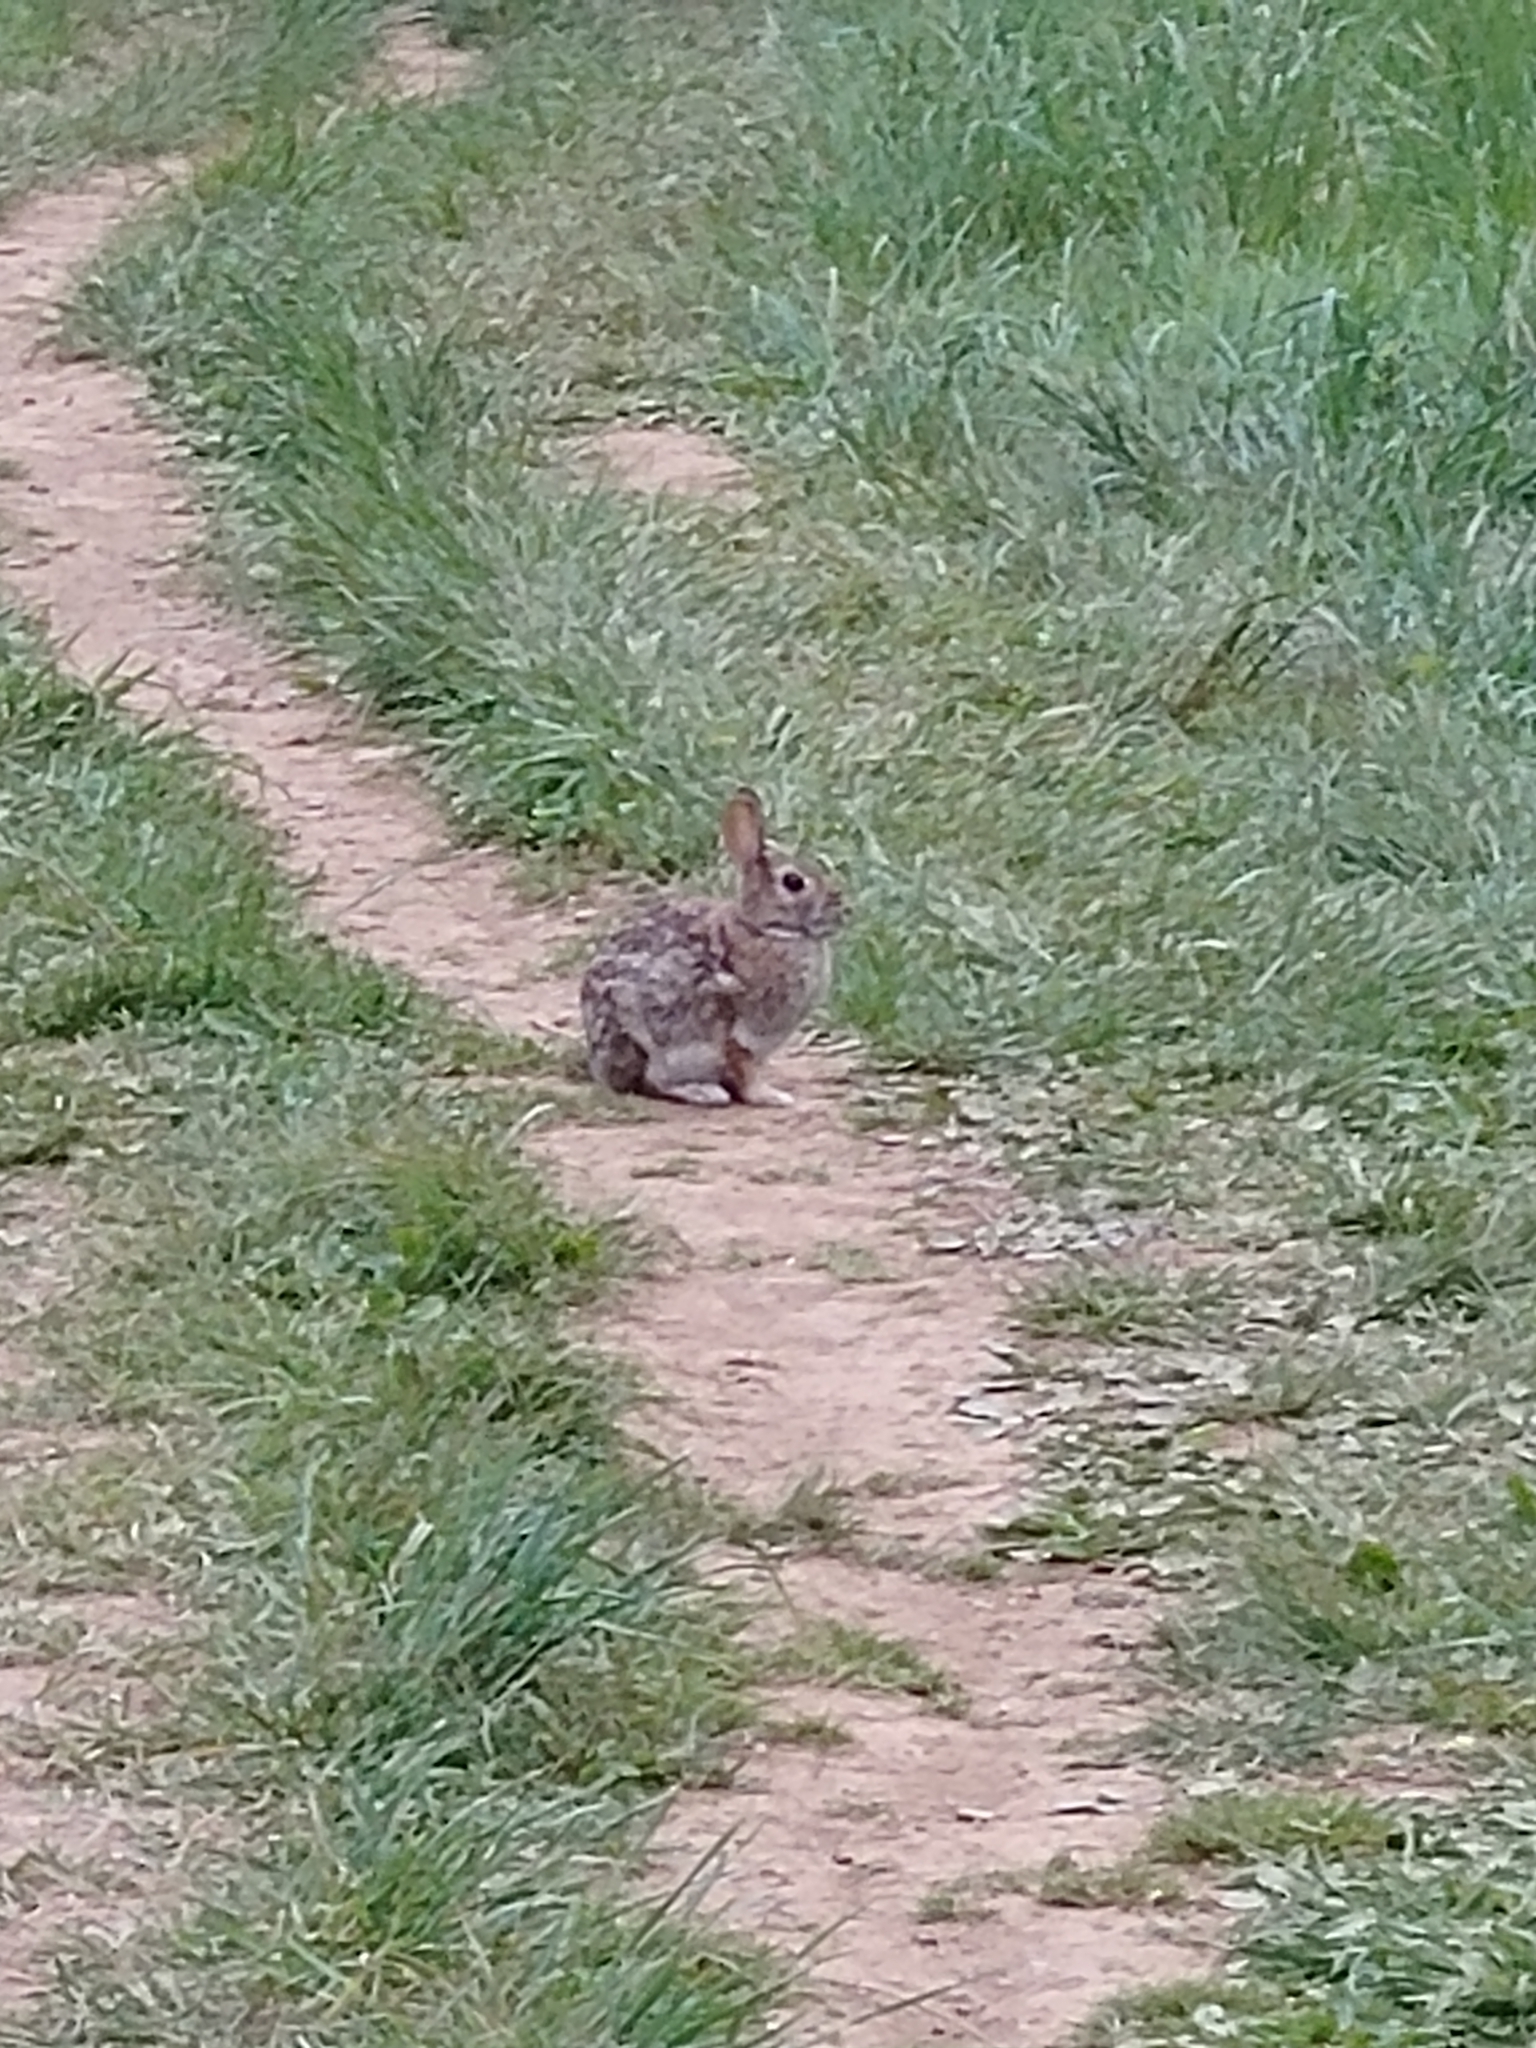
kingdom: Animalia
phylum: Chordata
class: Mammalia
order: Lagomorpha
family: Leporidae
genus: Sylvilagus
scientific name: Sylvilagus floridanus
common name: Eastern cottontail
